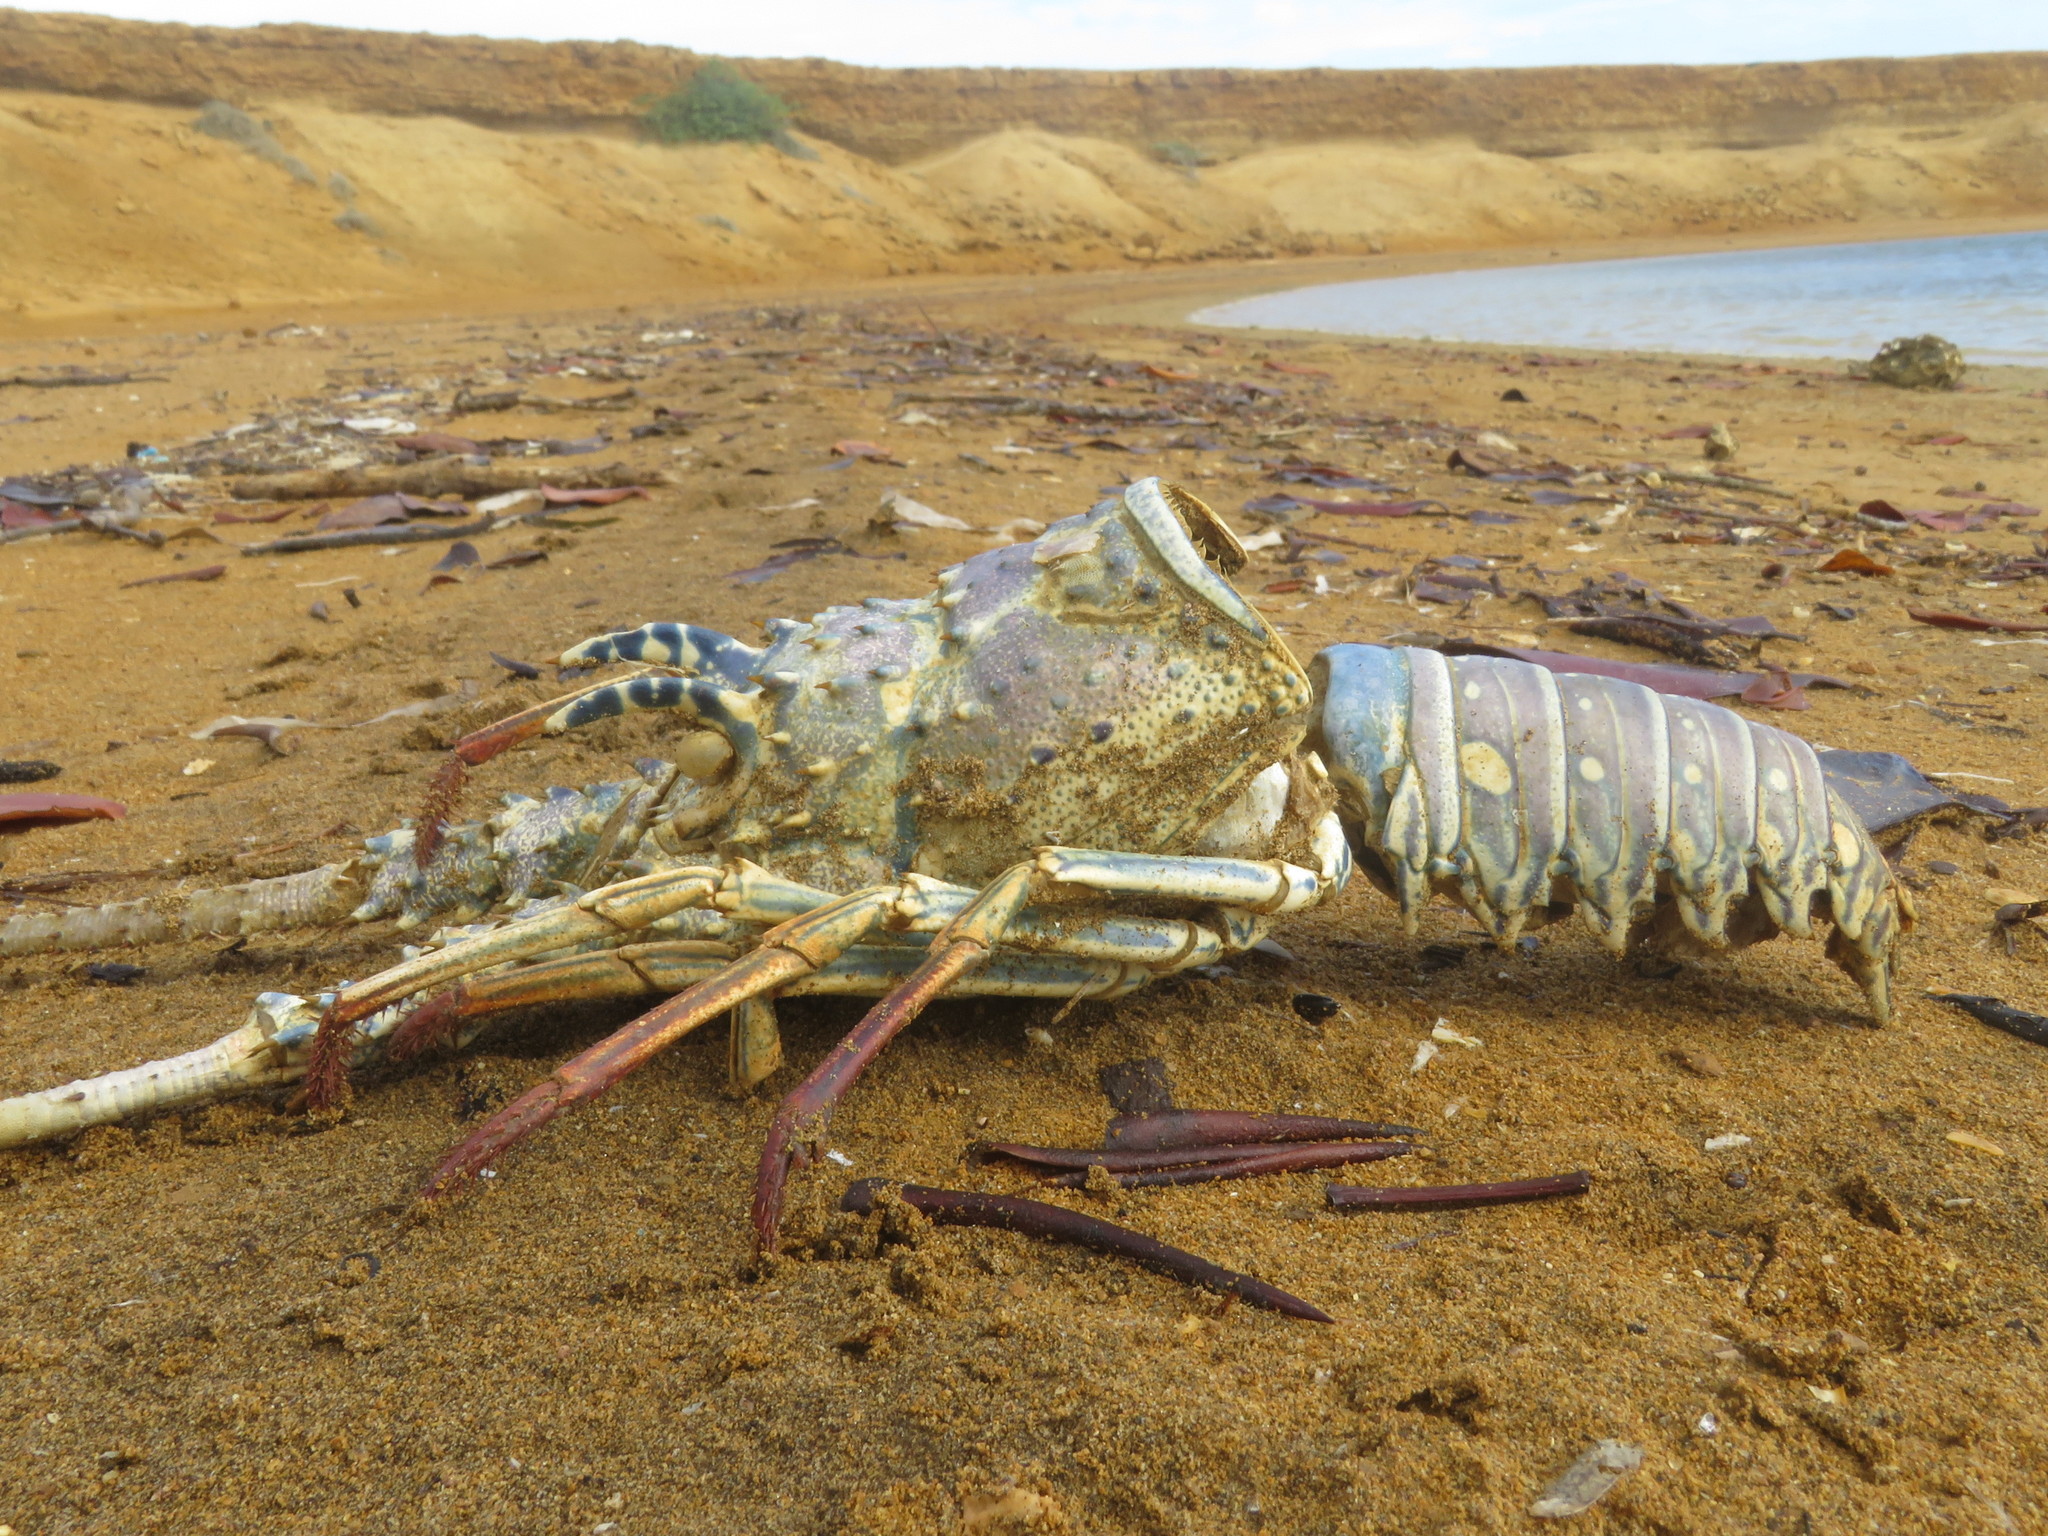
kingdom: Animalia
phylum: Arthropoda
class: Malacostraca
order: Decapoda
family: Palinuridae
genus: Panulirus
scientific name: Panulirus argus
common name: Caribbean spiny lobster
